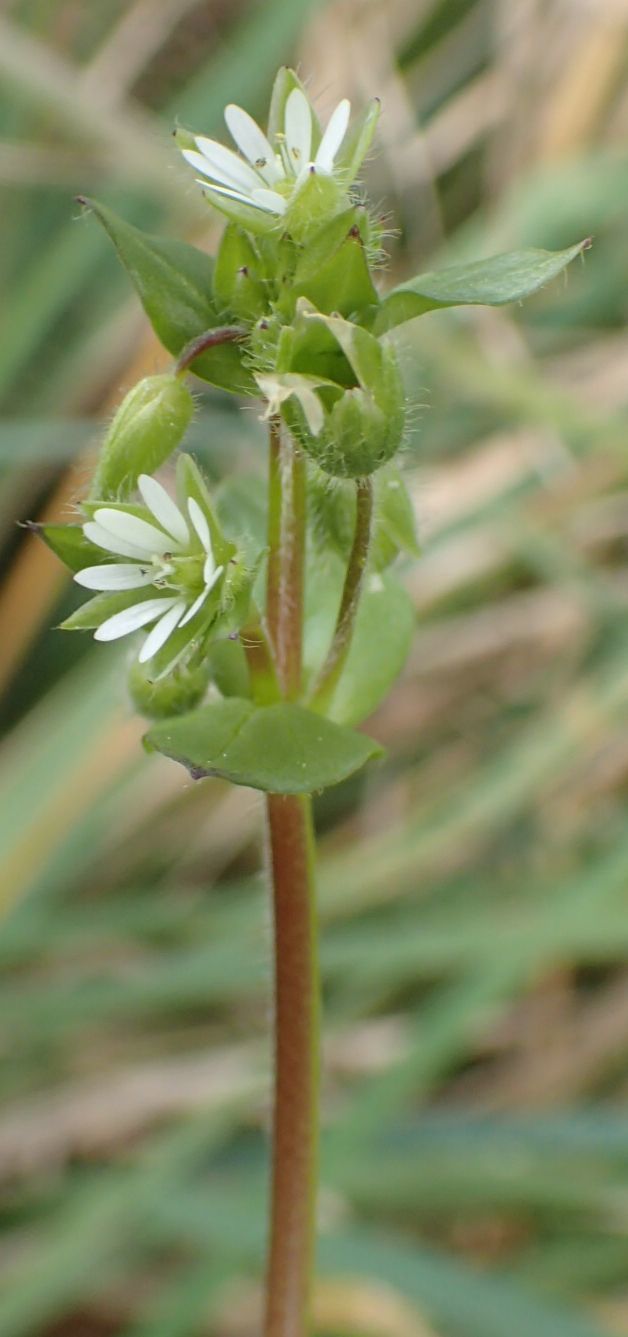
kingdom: Plantae
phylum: Tracheophyta
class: Magnoliopsida
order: Caryophyllales
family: Caryophyllaceae
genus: Stellaria
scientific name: Stellaria media
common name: Common chickweed
